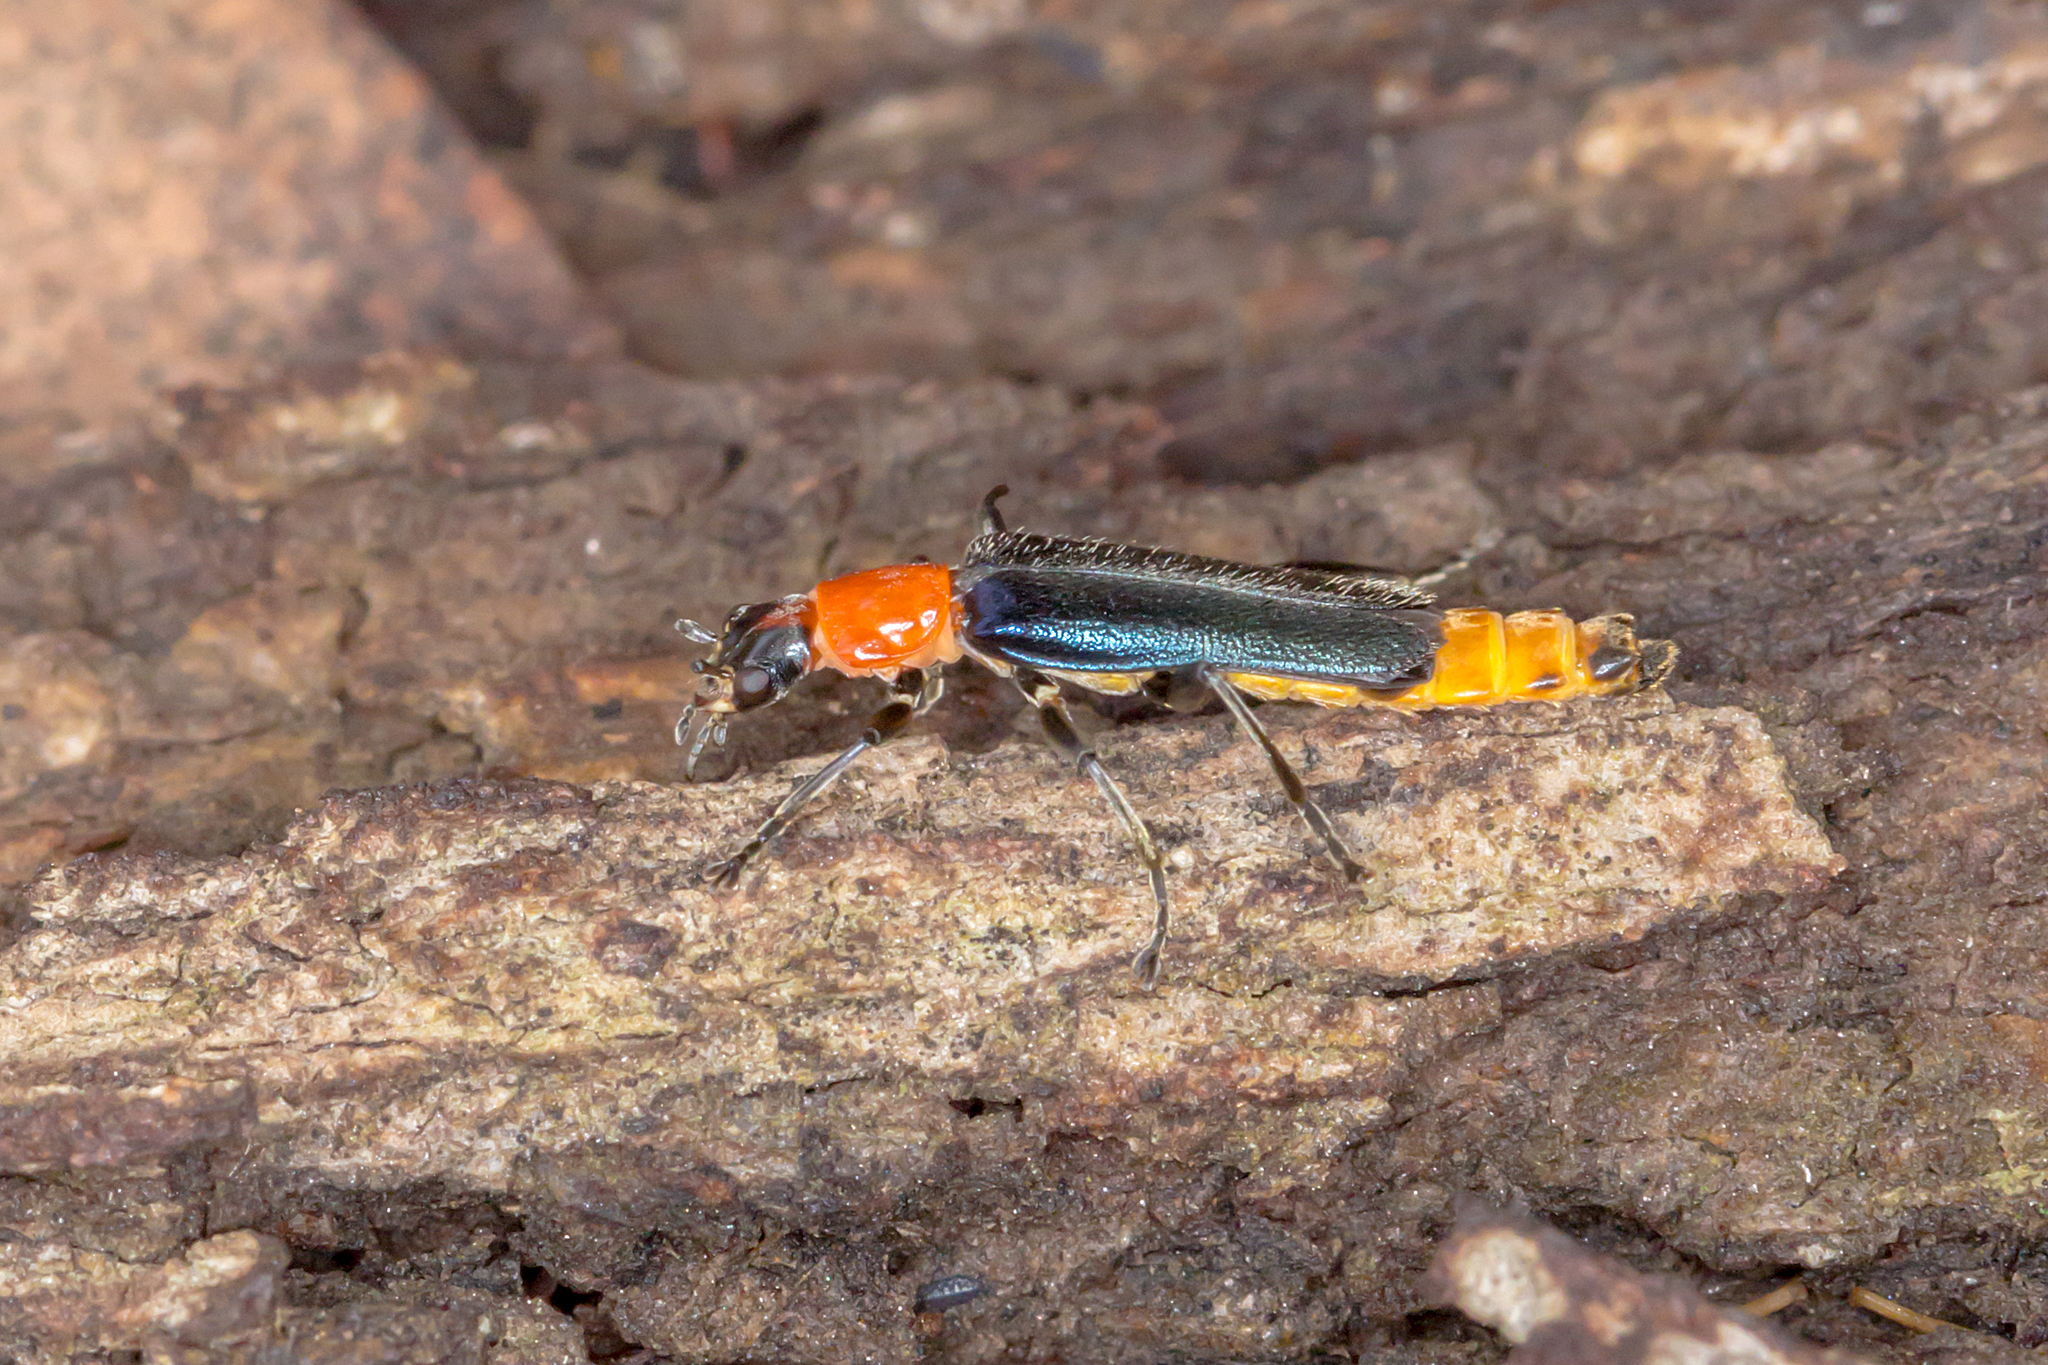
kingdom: Animalia
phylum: Arthropoda
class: Insecta
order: Coleoptera
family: Cantharidae
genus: Chauliognathus
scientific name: Chauliognathus
